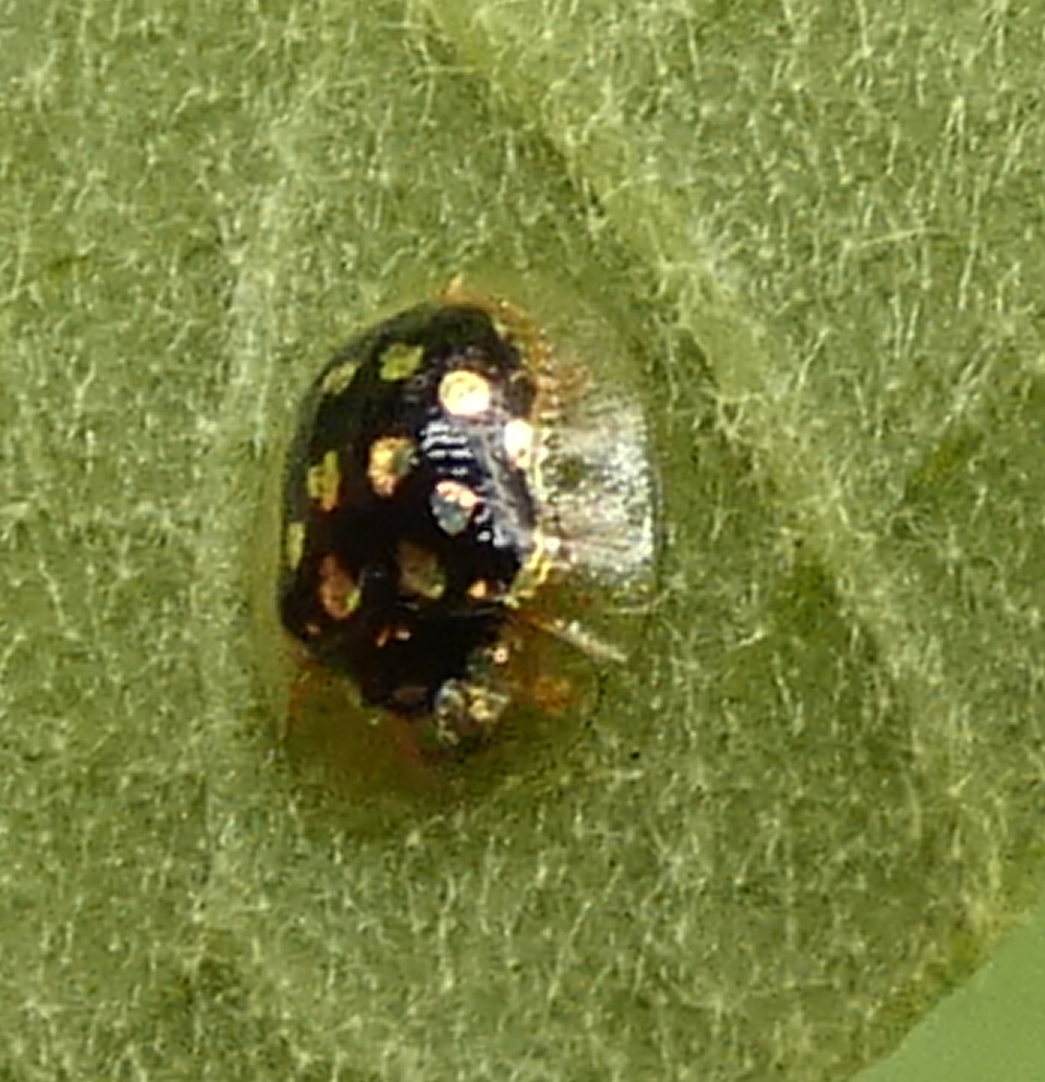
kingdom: Animalia
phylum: Arthropoda
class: Insecta
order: Coleoptera
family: Chrysomelidae
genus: Plagiometriona
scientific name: Plagiometriona microcera
